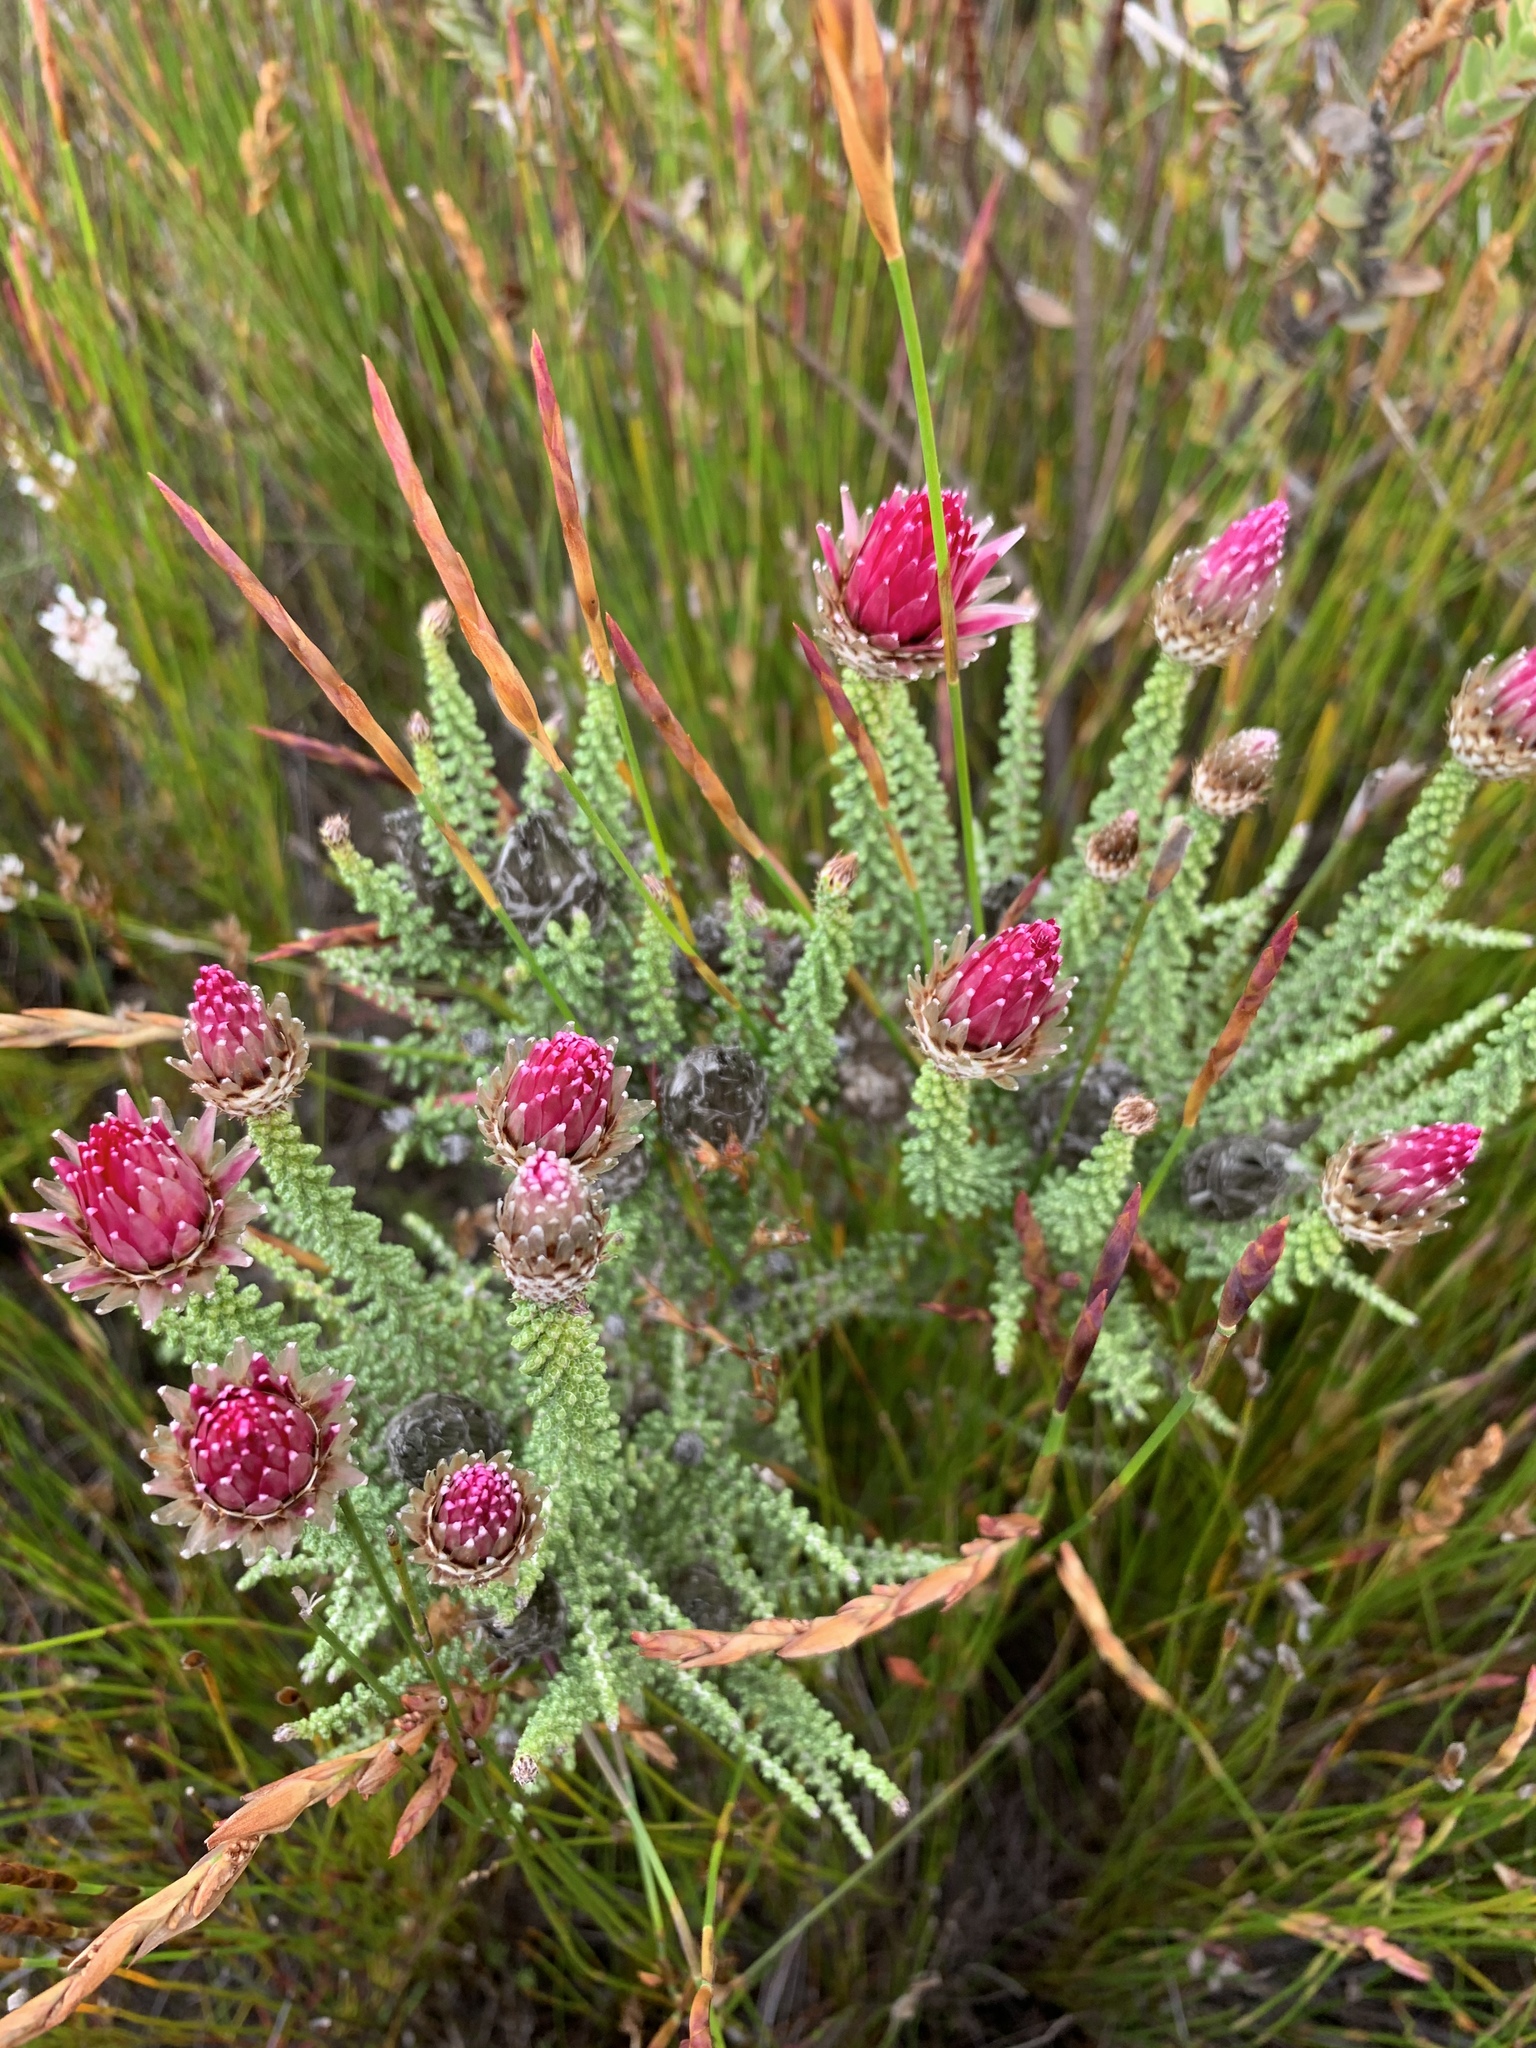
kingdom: Plantae
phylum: Tracheophyta
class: Magnoliopsida
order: Asterales
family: Asteraceae
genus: Phaenocoma
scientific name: Phaenocoma prolifera
